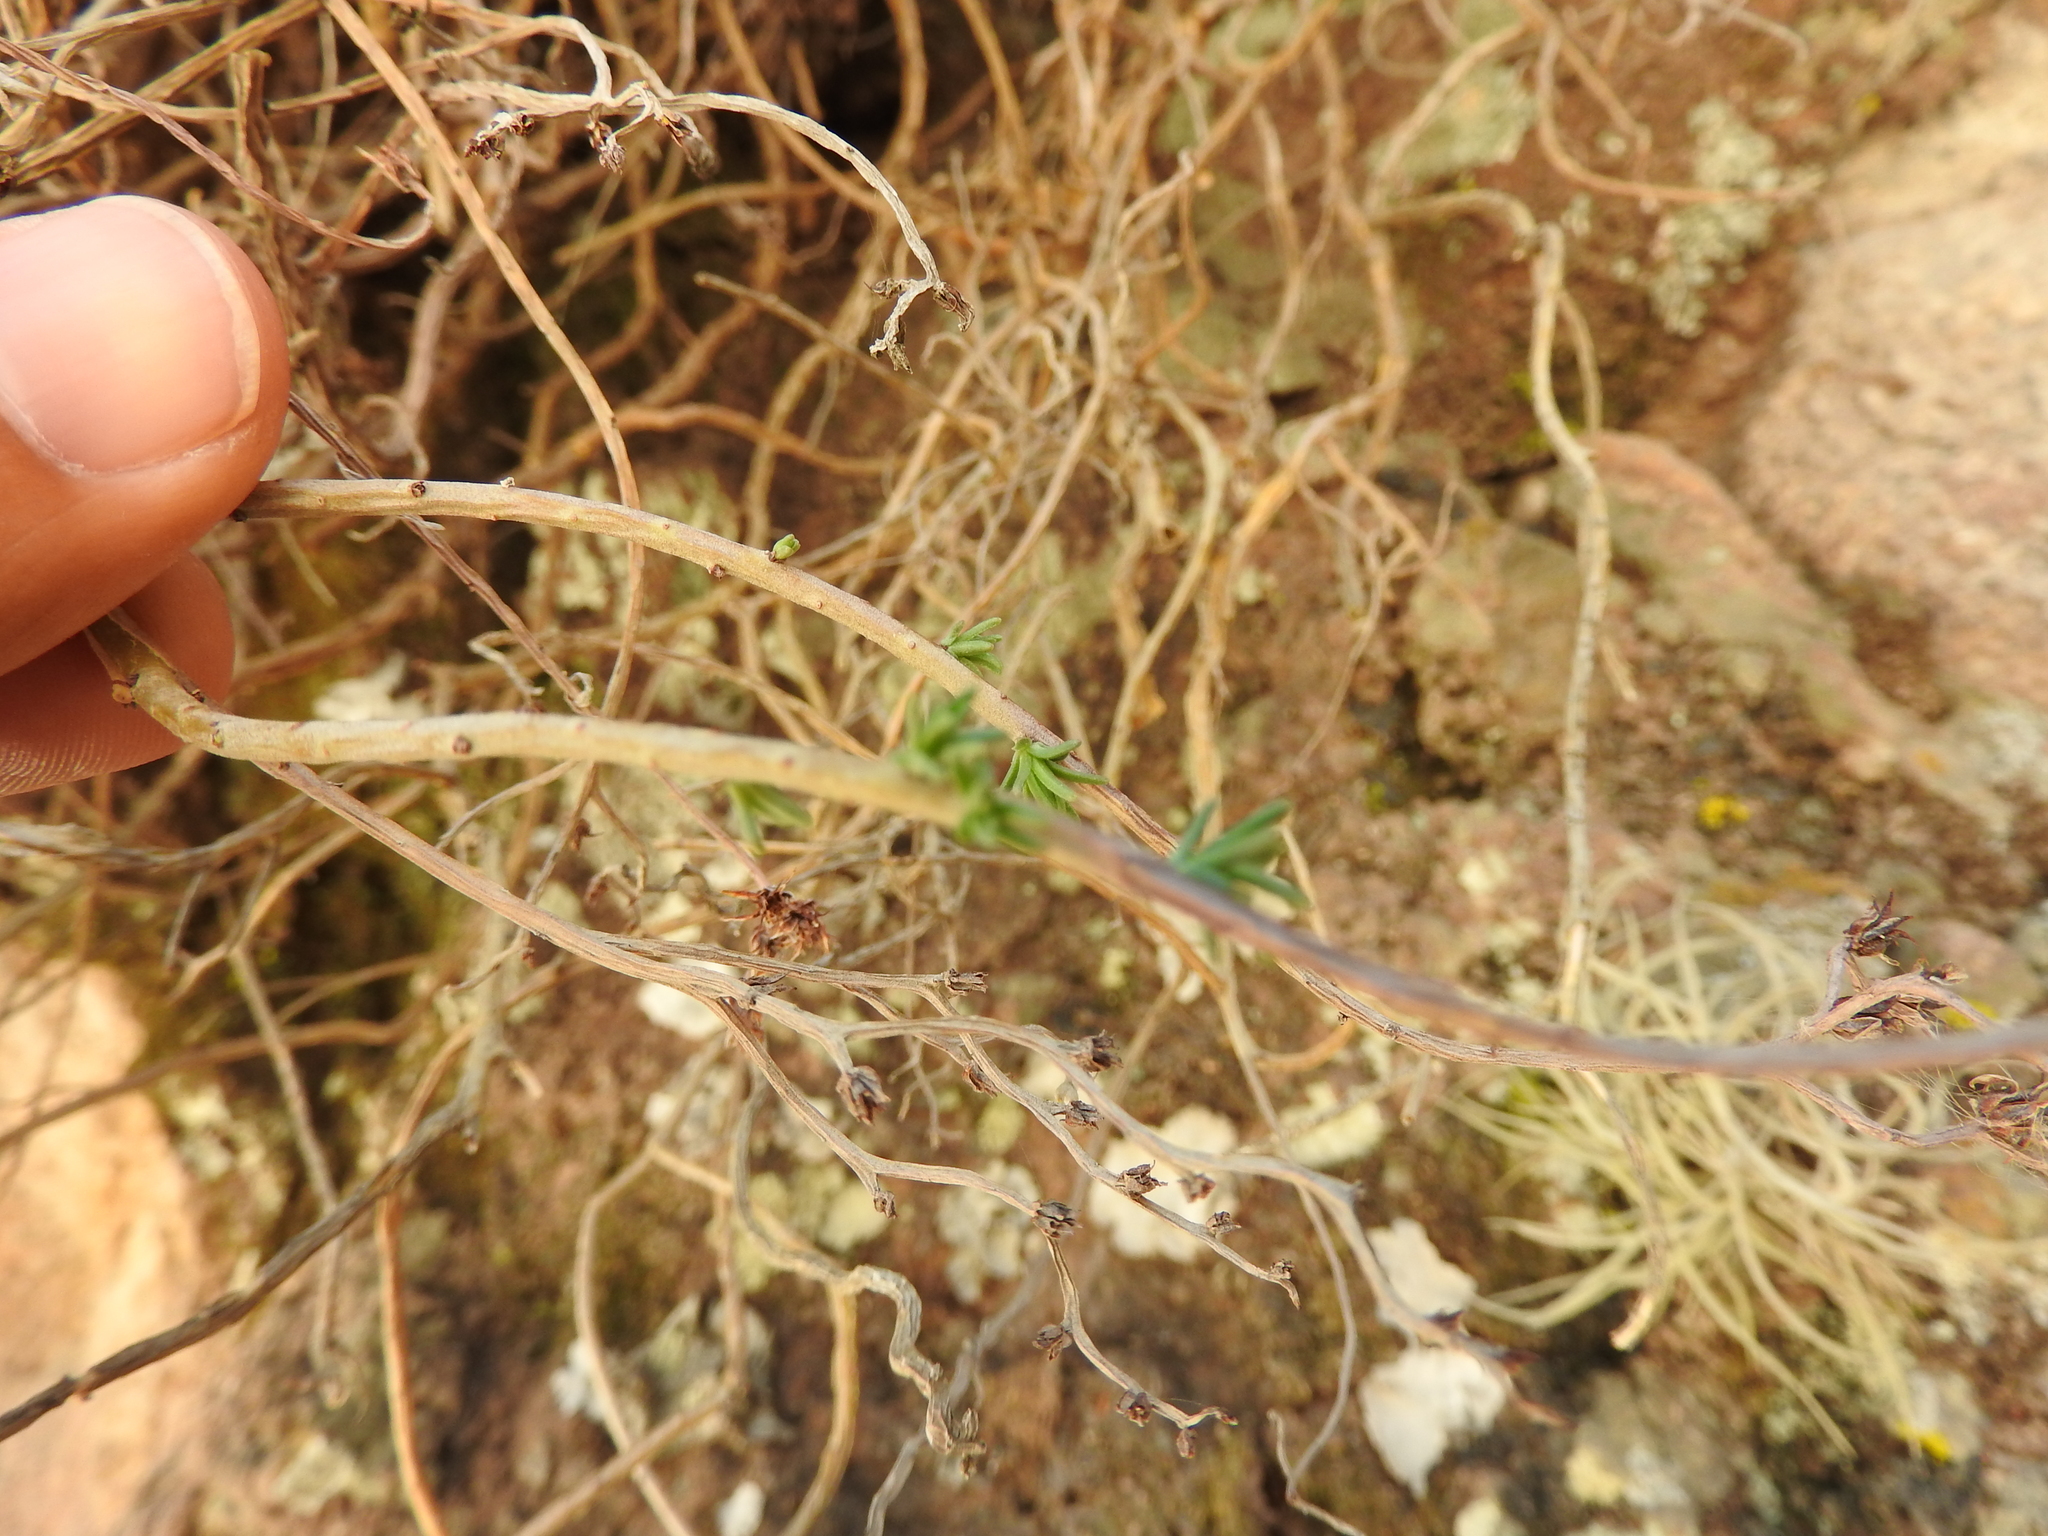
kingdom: Plantae
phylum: Tracheophyta
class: Magnoliopsida
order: Saxifragales
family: Crassulaceae
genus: Sedum
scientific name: Sedum griseum
